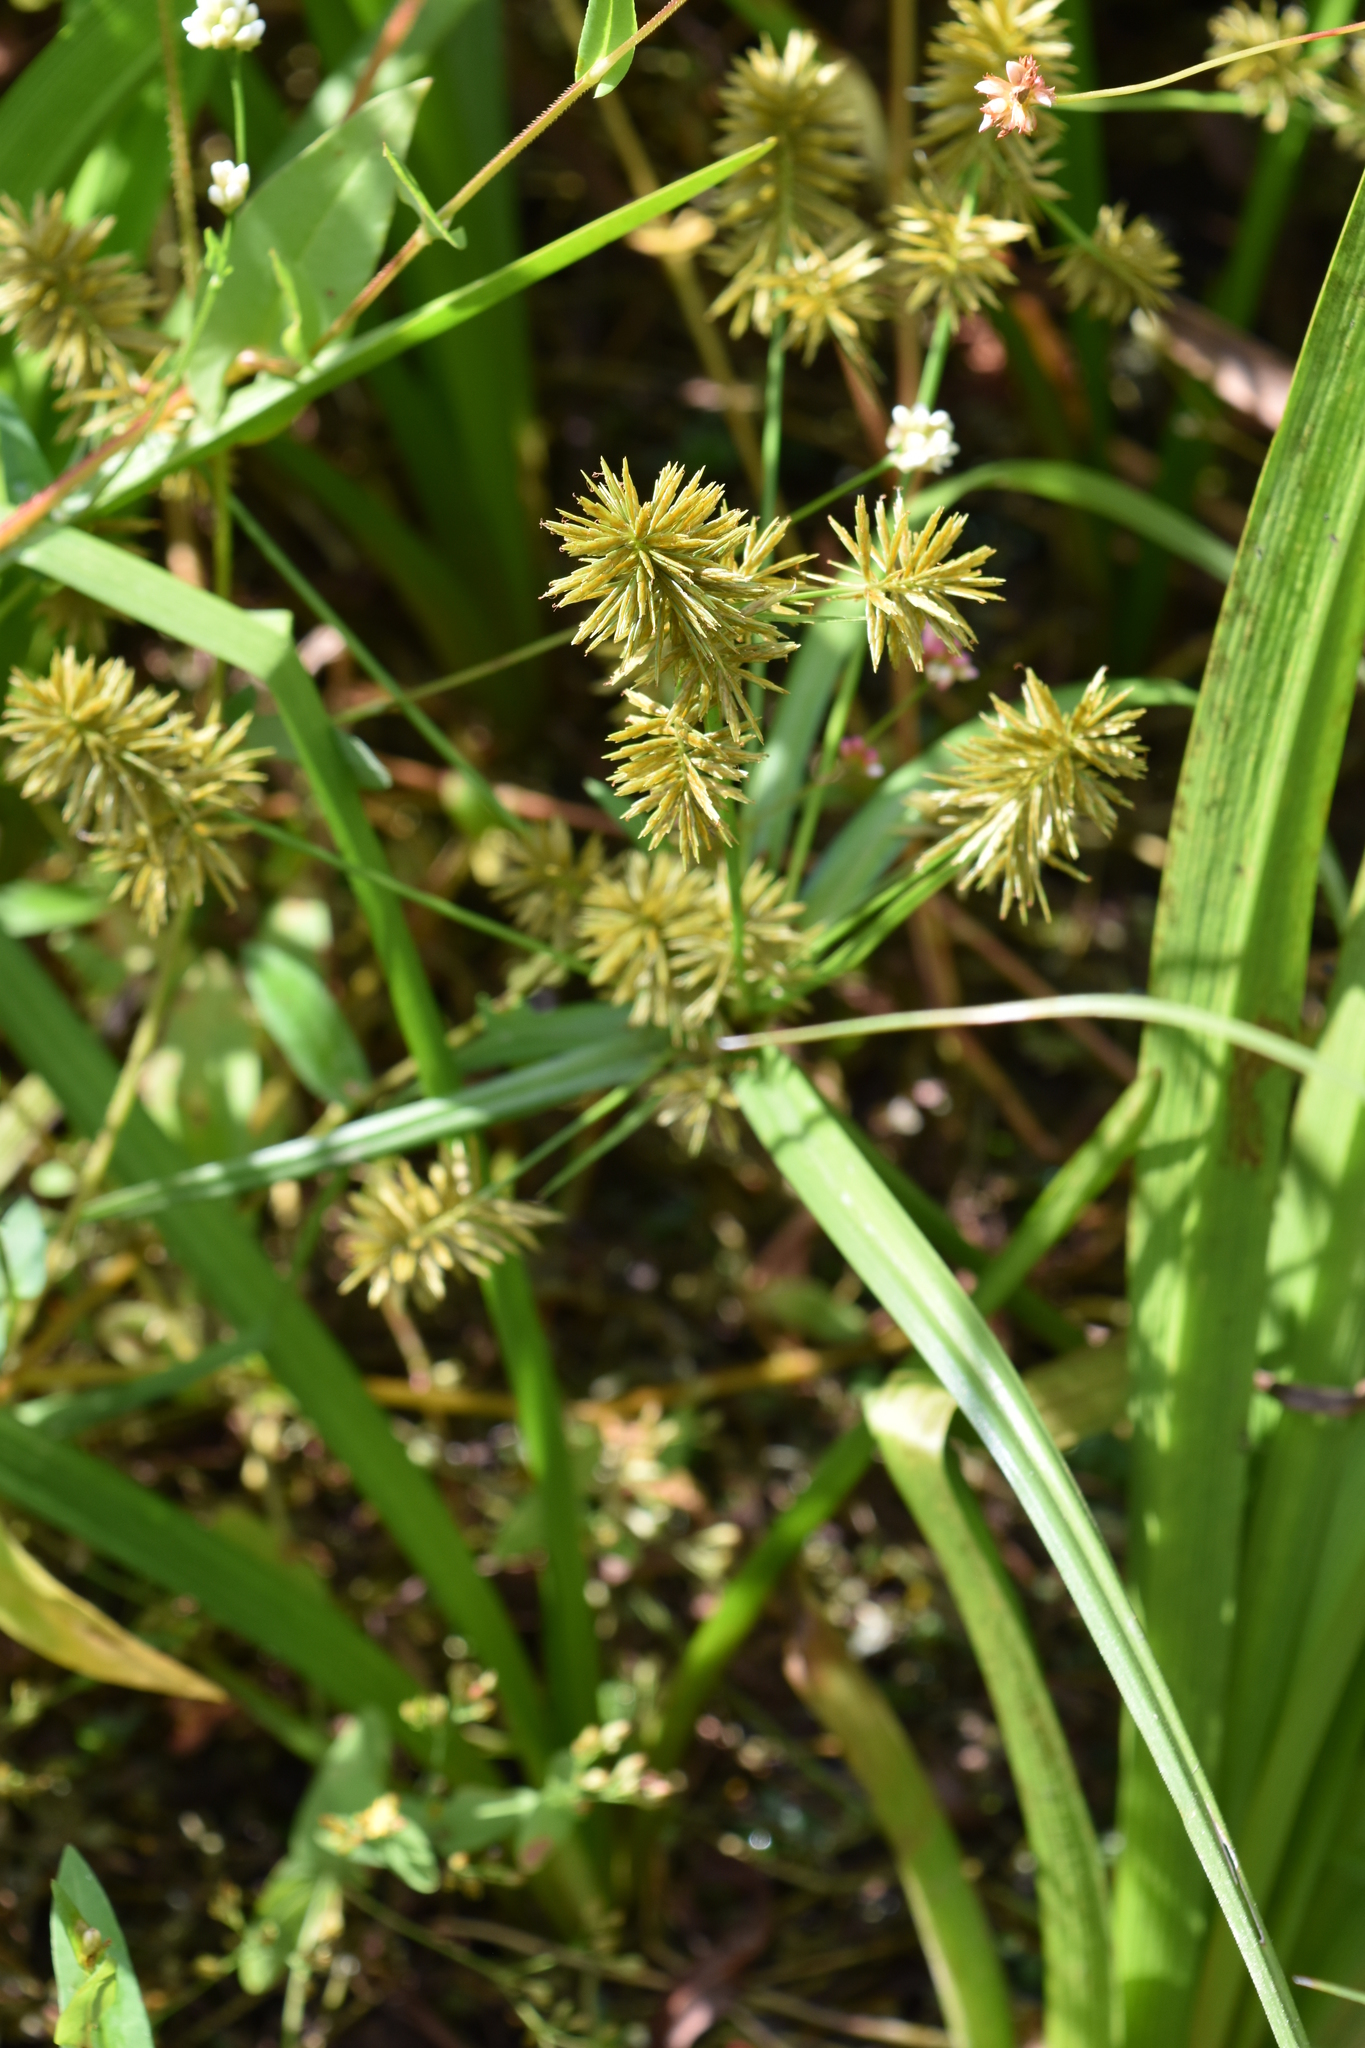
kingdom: Plantae
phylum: Tracheophyta
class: Liliopsida
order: Poales
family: Cyperaceae
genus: Cyperus
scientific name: Cyperus strigosus
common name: False nutsedge
